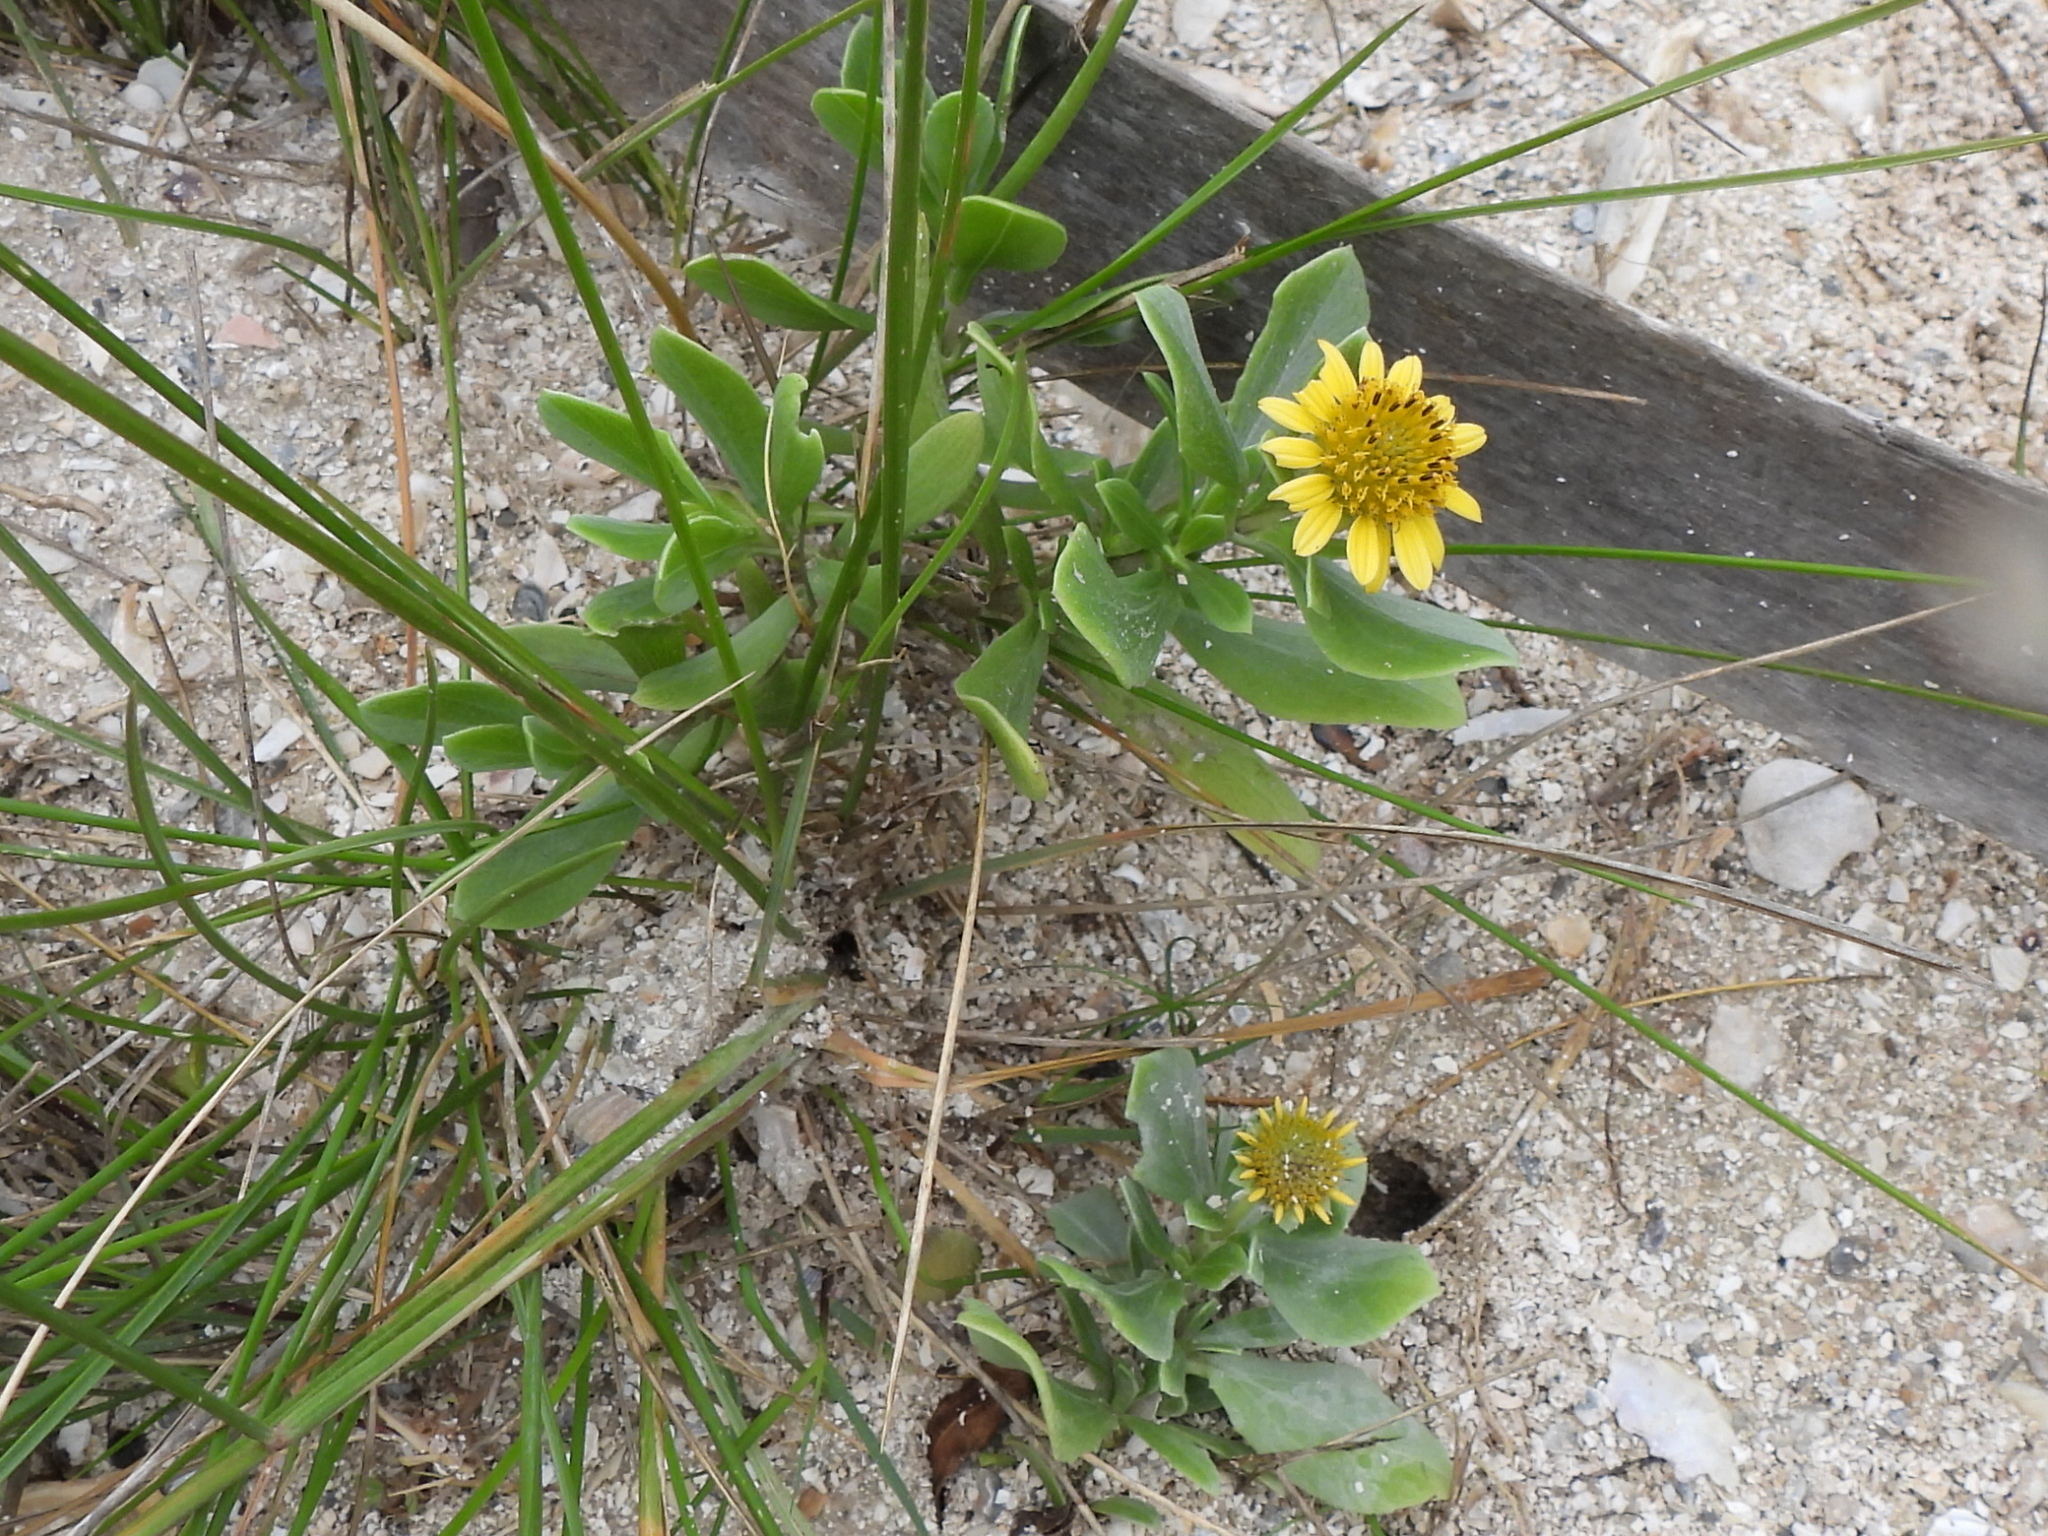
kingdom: Plantae
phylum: Tracheophyta
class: Magnoliopsida
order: Asterales
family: Asteraceae
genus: Borrichia
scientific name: Borrichia frutescens
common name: Sea oxeye
